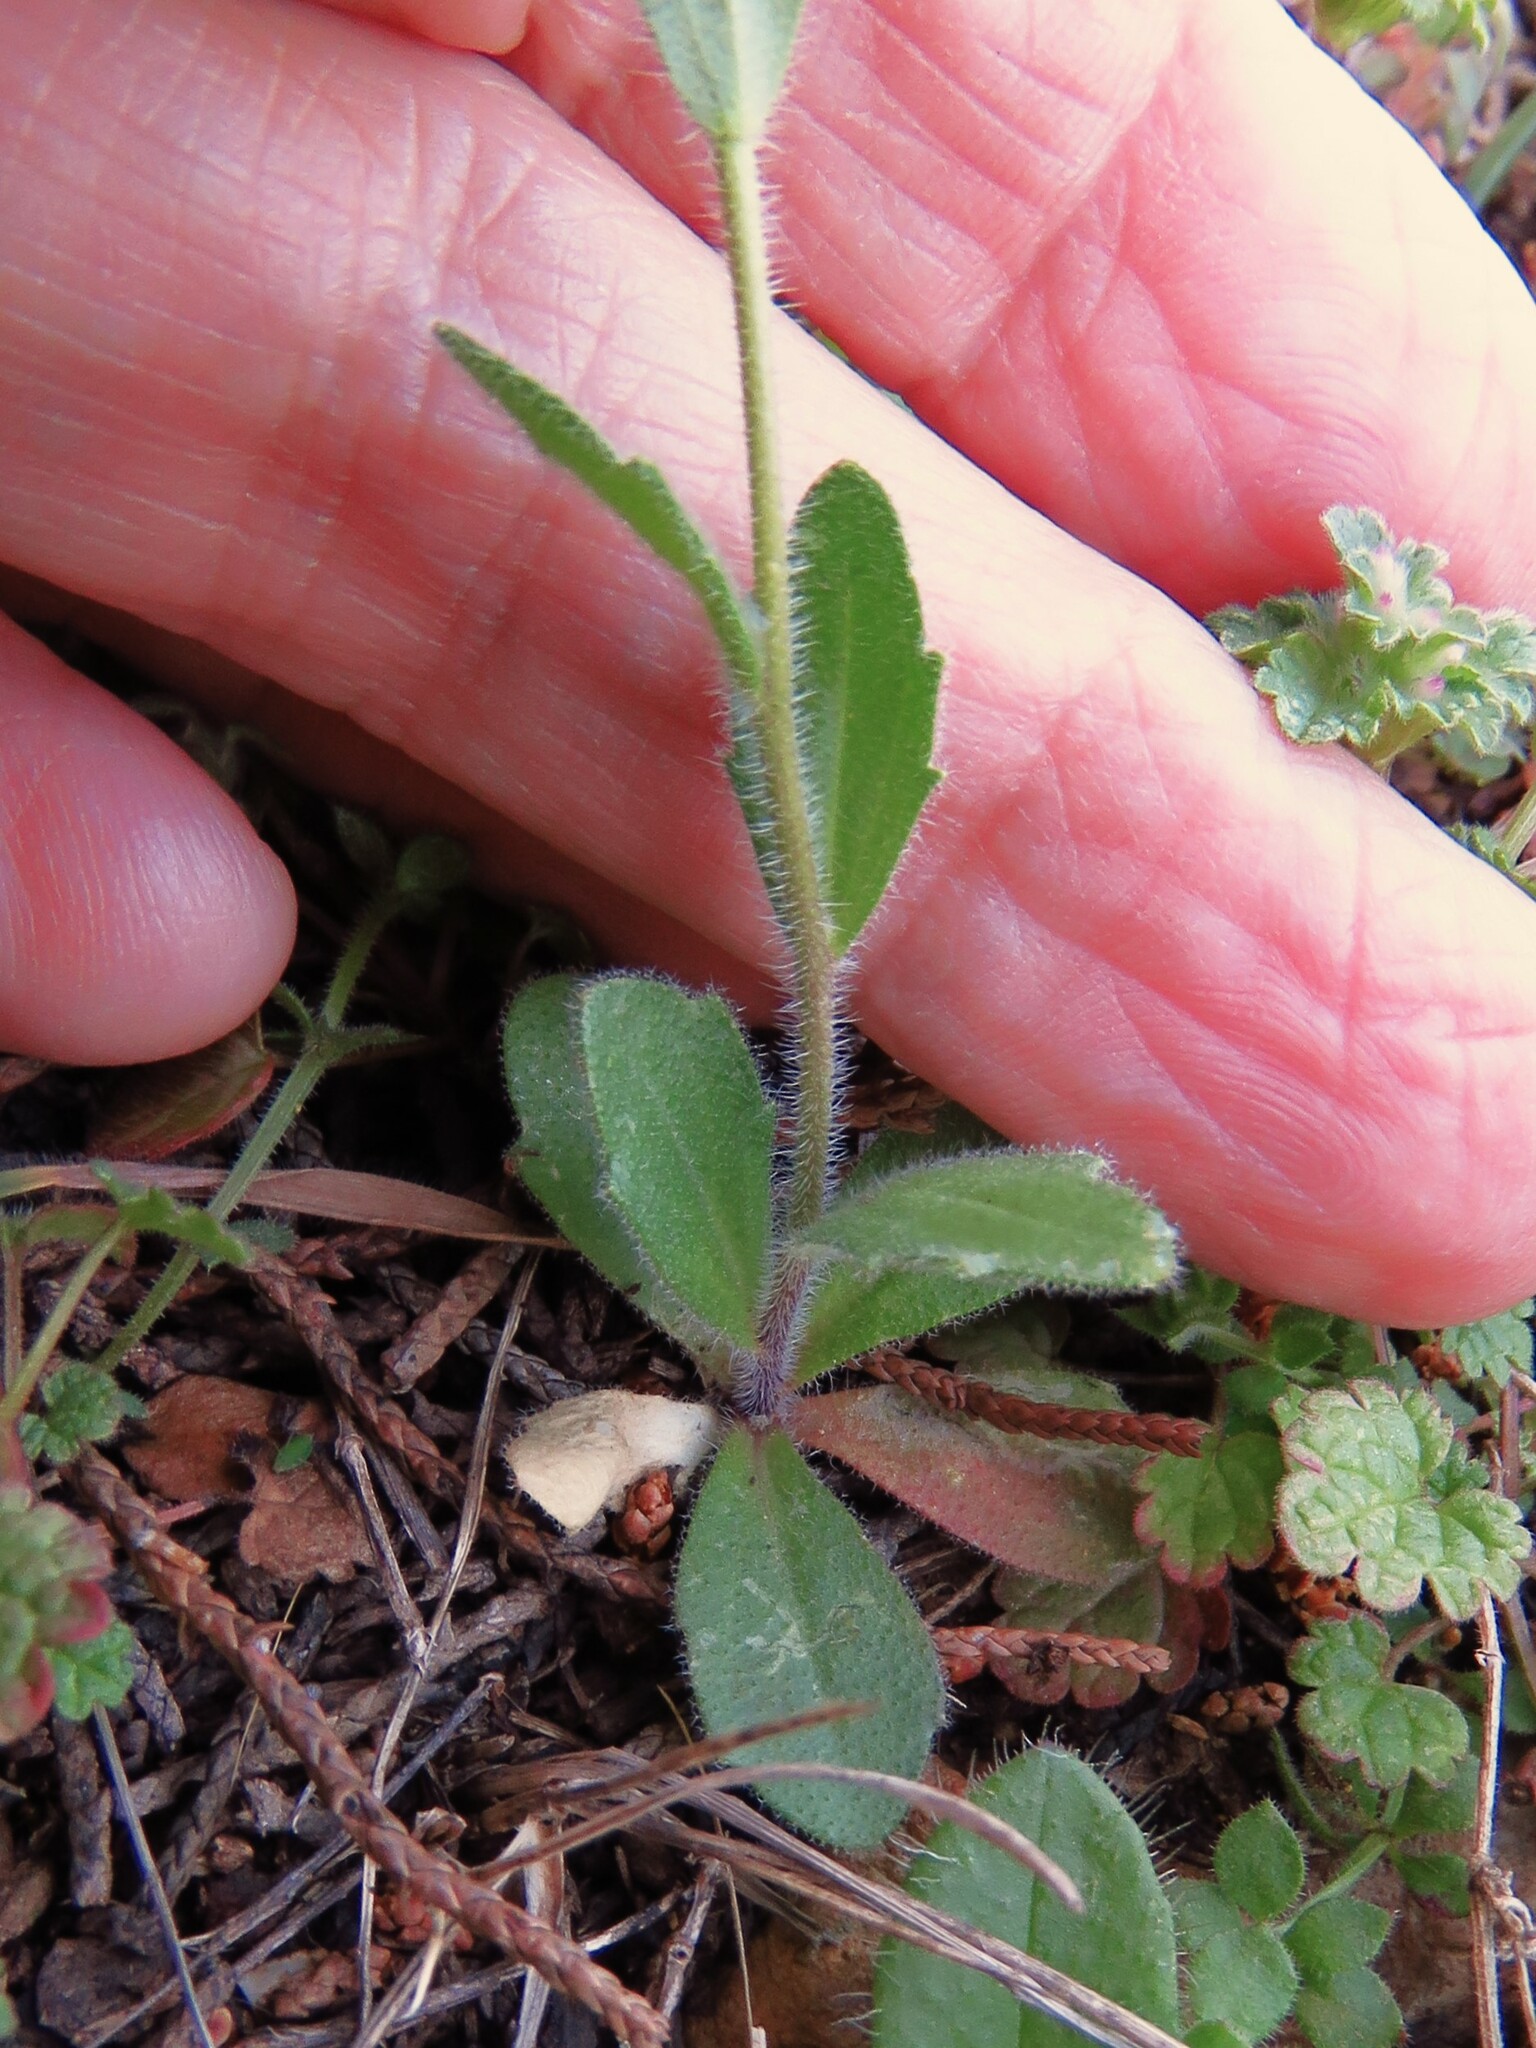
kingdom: Plantae
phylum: Tracheophyta
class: Magnoliopsida
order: Brassicales
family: Brassicaceae
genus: Tomostima
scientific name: Tomostima platycarpa
